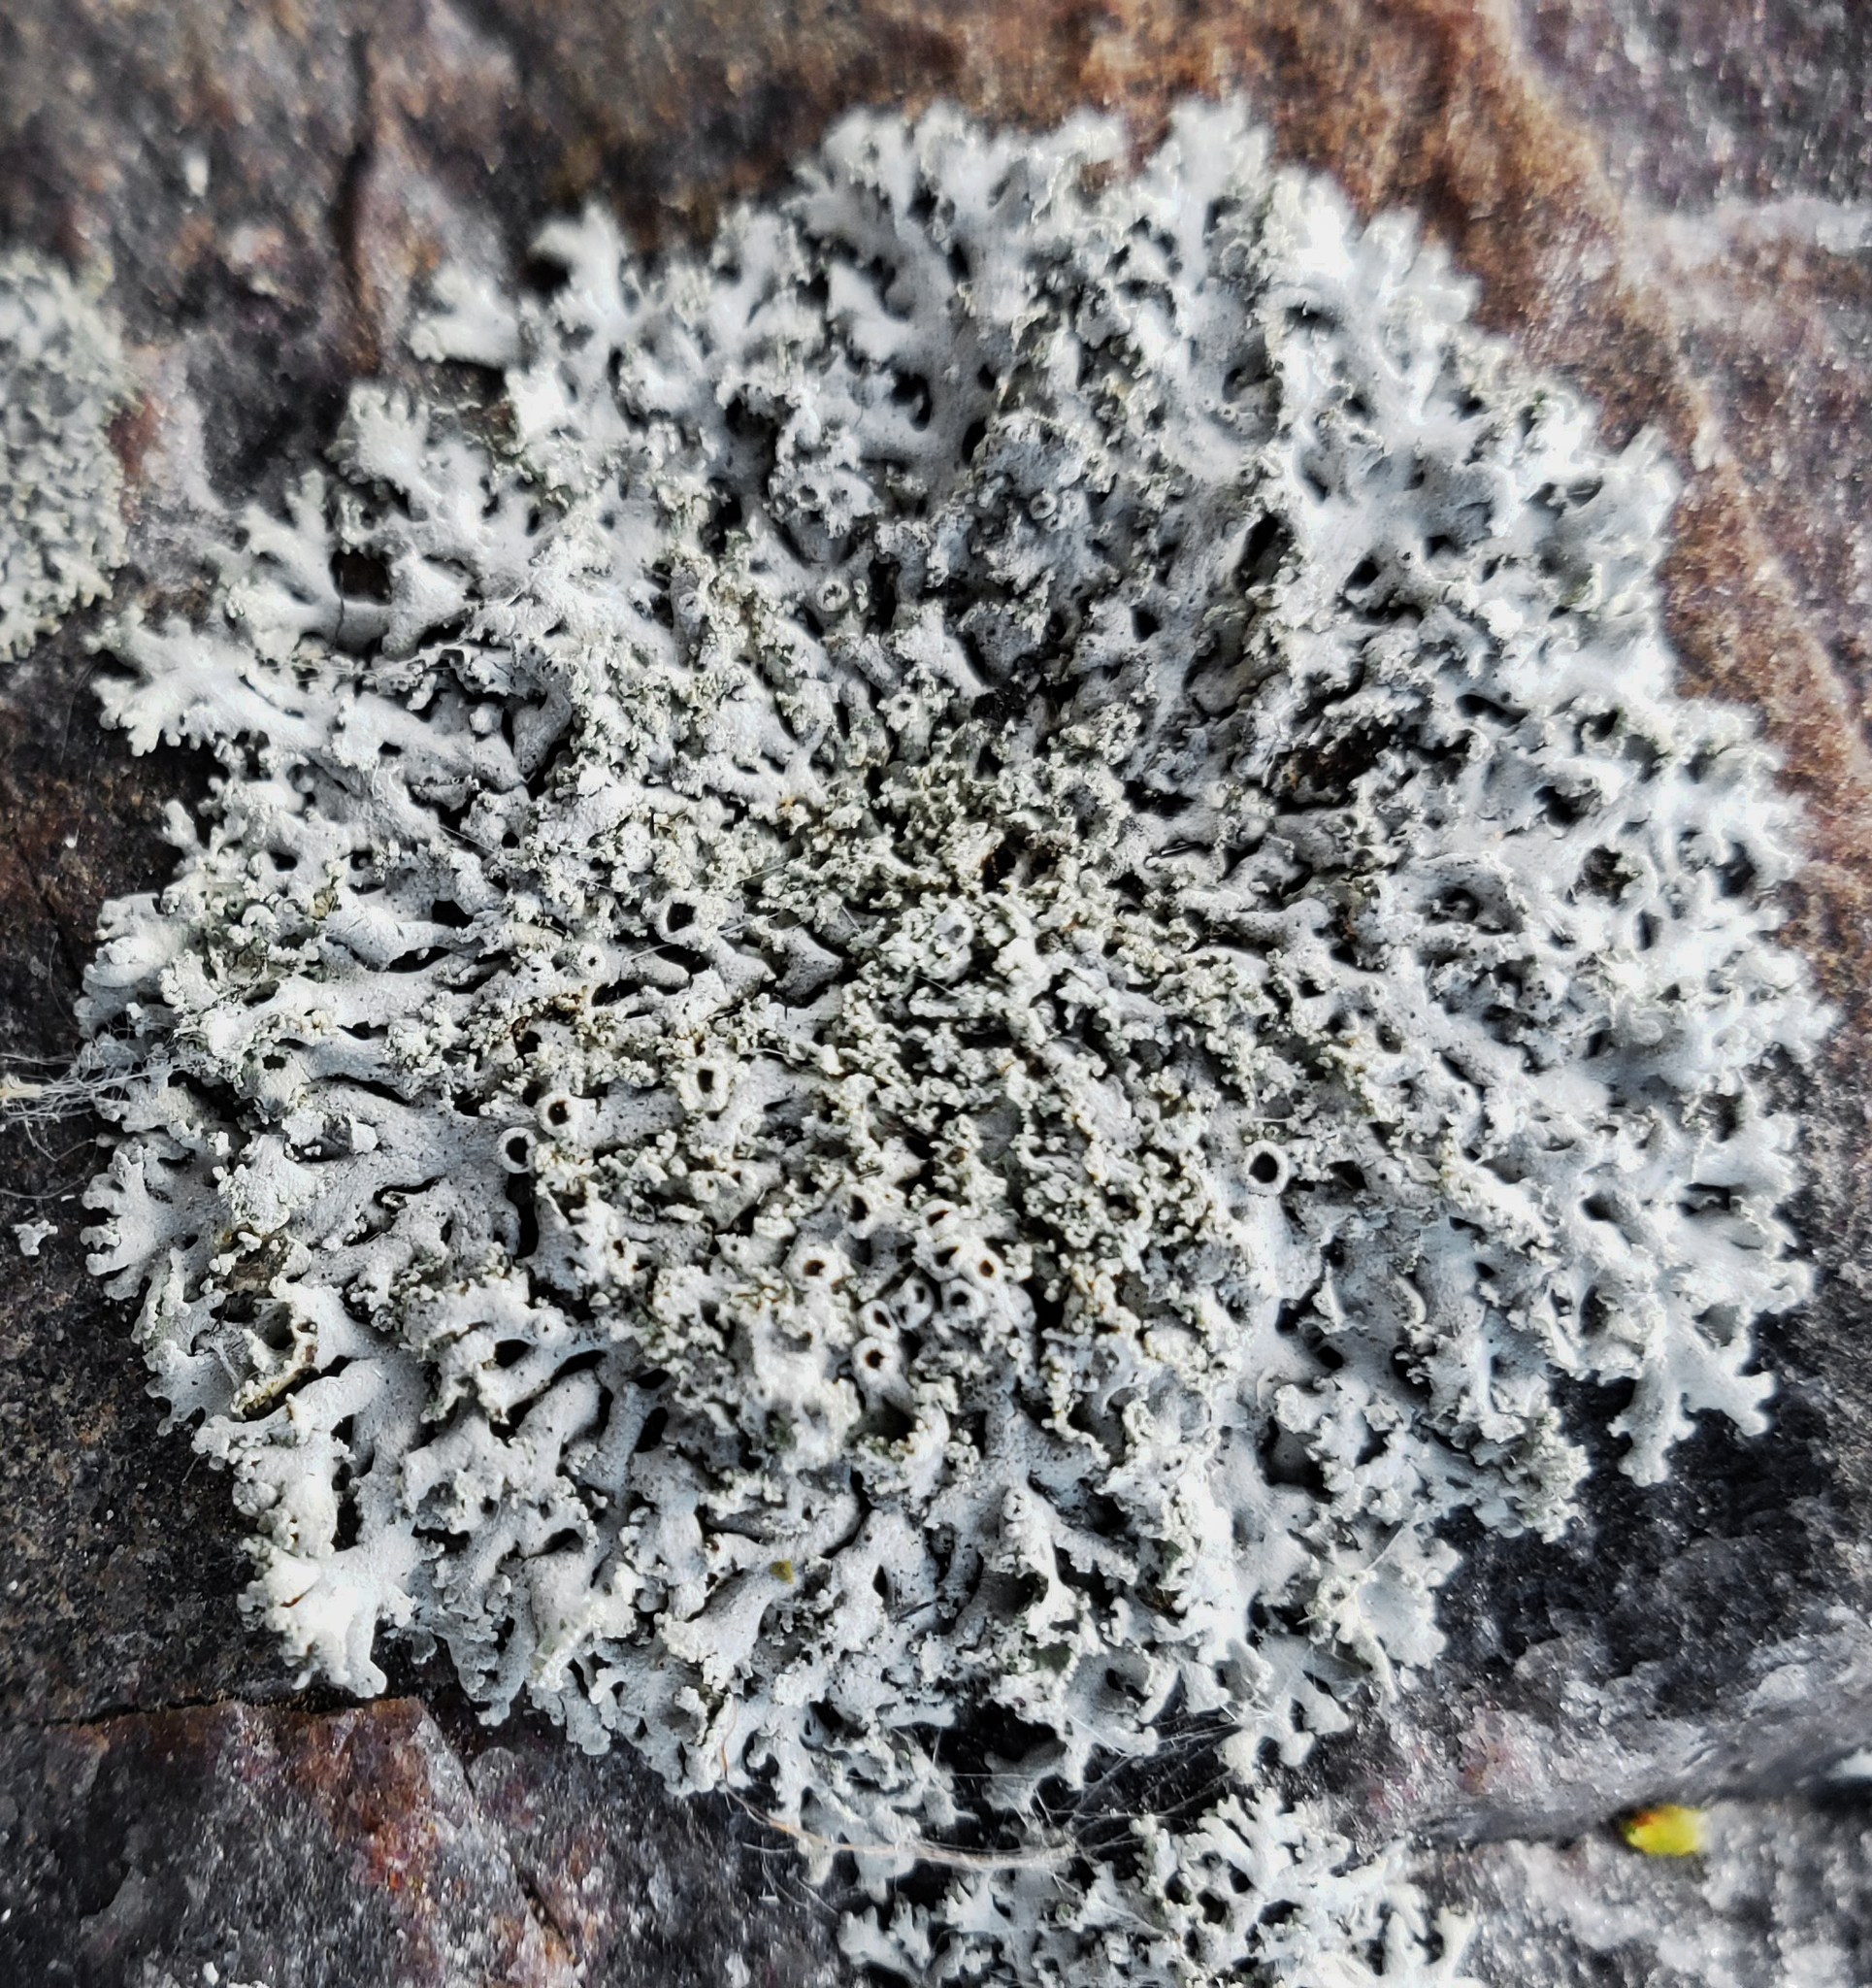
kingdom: Fungi
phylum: Ascomycota
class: Lecanoromycetes
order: Caliciales
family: Physciaceae
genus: Physcia
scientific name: Physcia millegrana
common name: Rosette lichen
